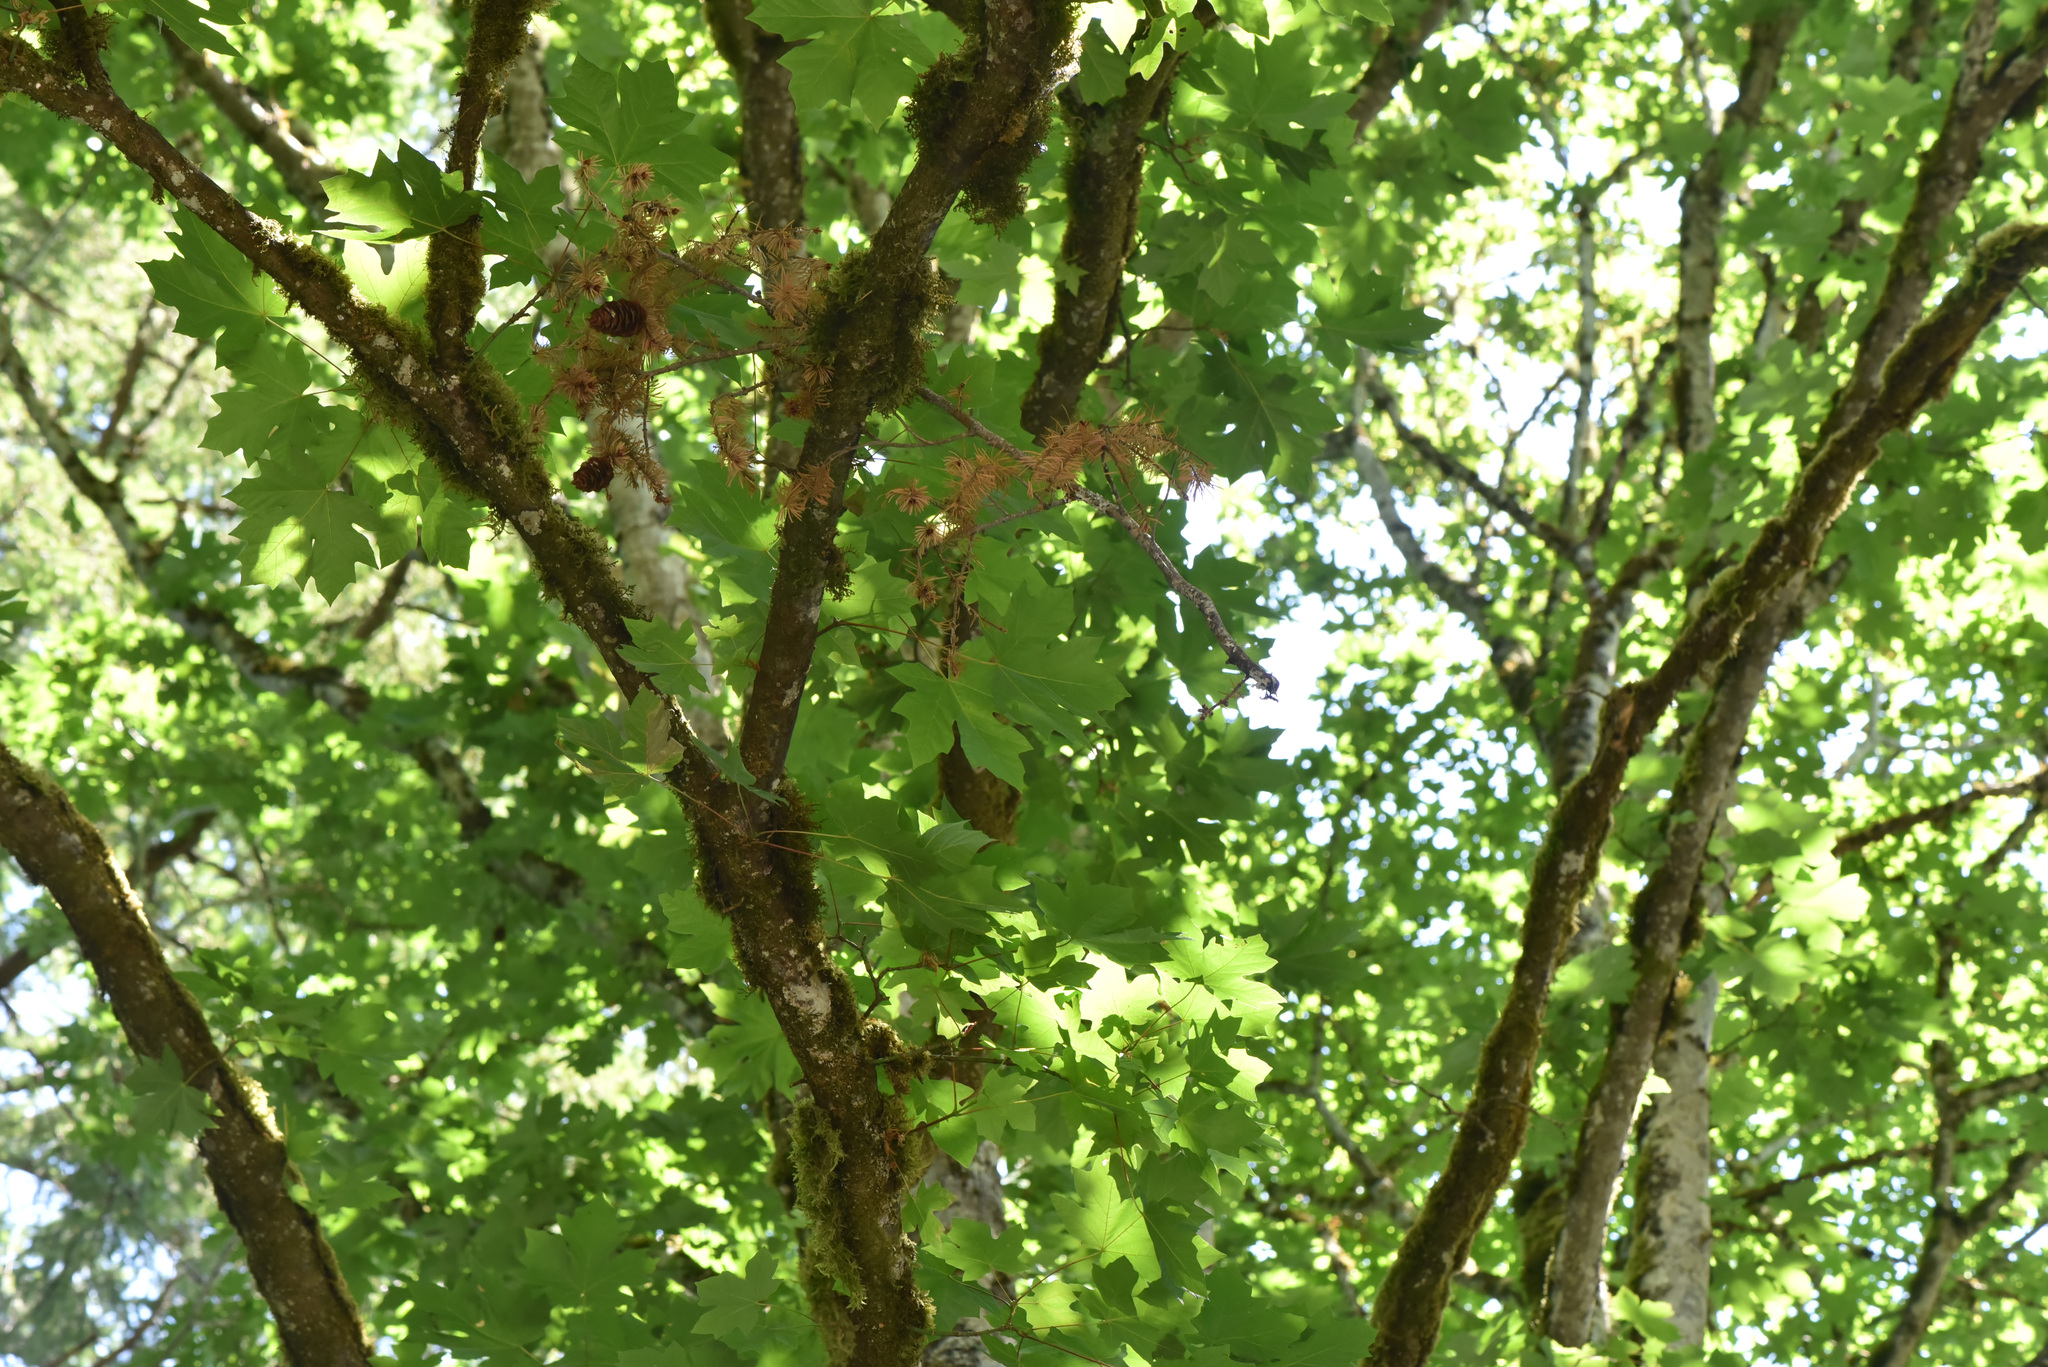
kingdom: Plantae
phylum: Tracheophyta
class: Magnoliopsida
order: Sapindales
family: Sapindaceae
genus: Acer
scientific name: Acer macrophyllum
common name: Oregon maple
